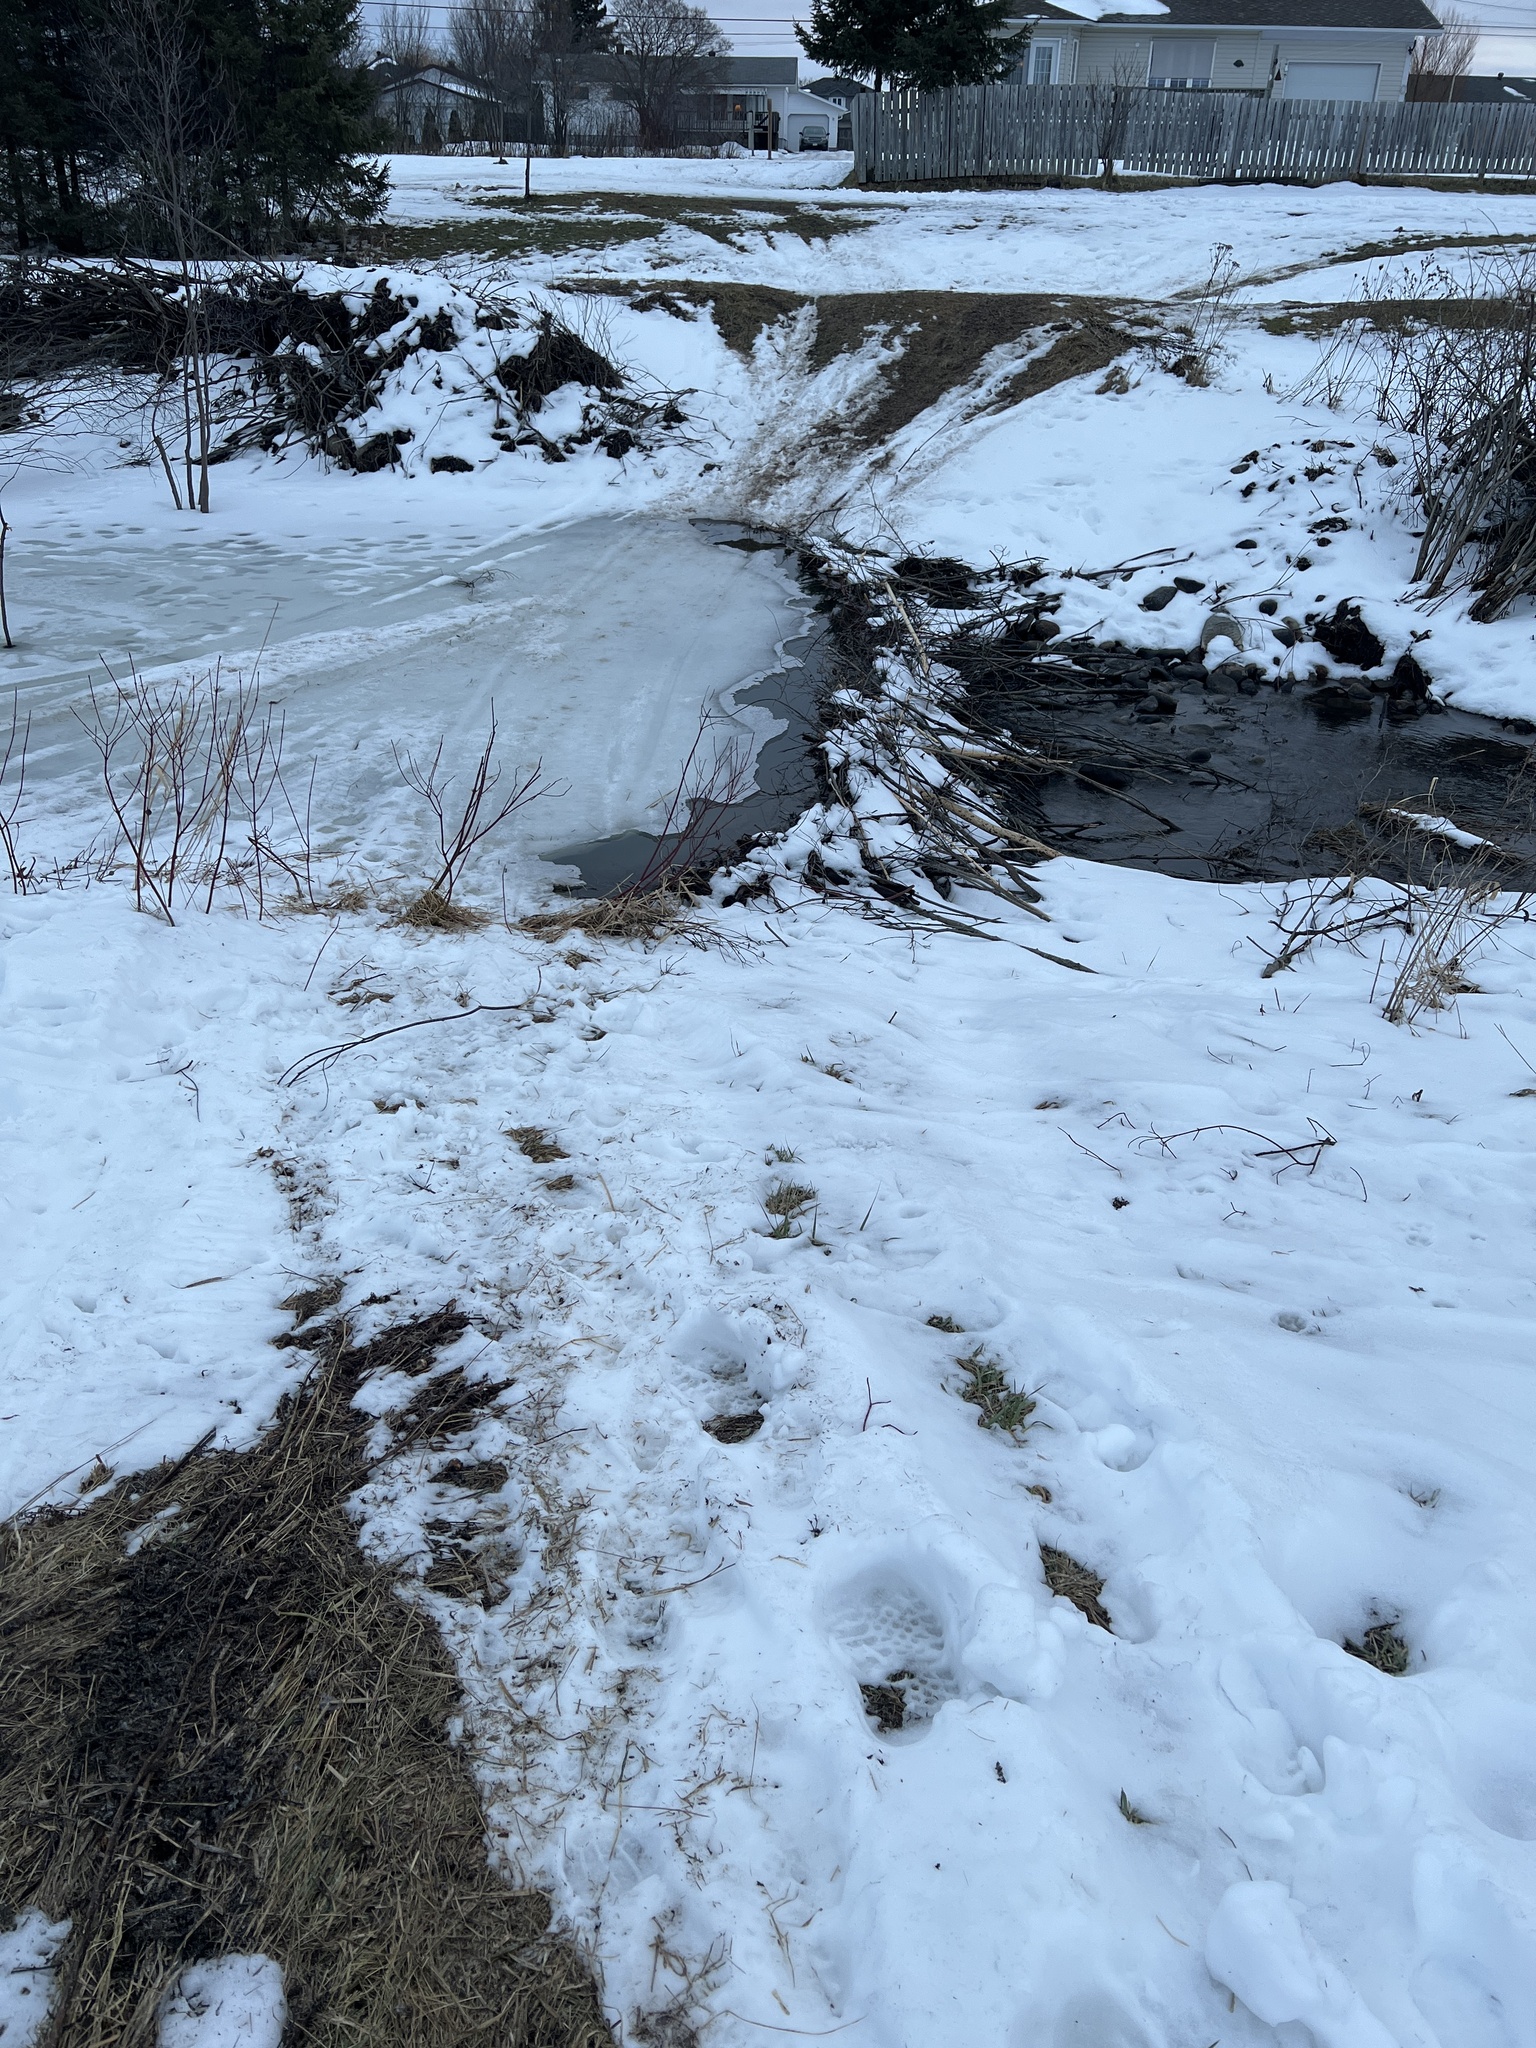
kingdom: Animalia
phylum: Chordata
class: Mammalia
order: Rodentia
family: Castoridae
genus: Castor
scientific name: Castor canadensis
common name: American beaver
